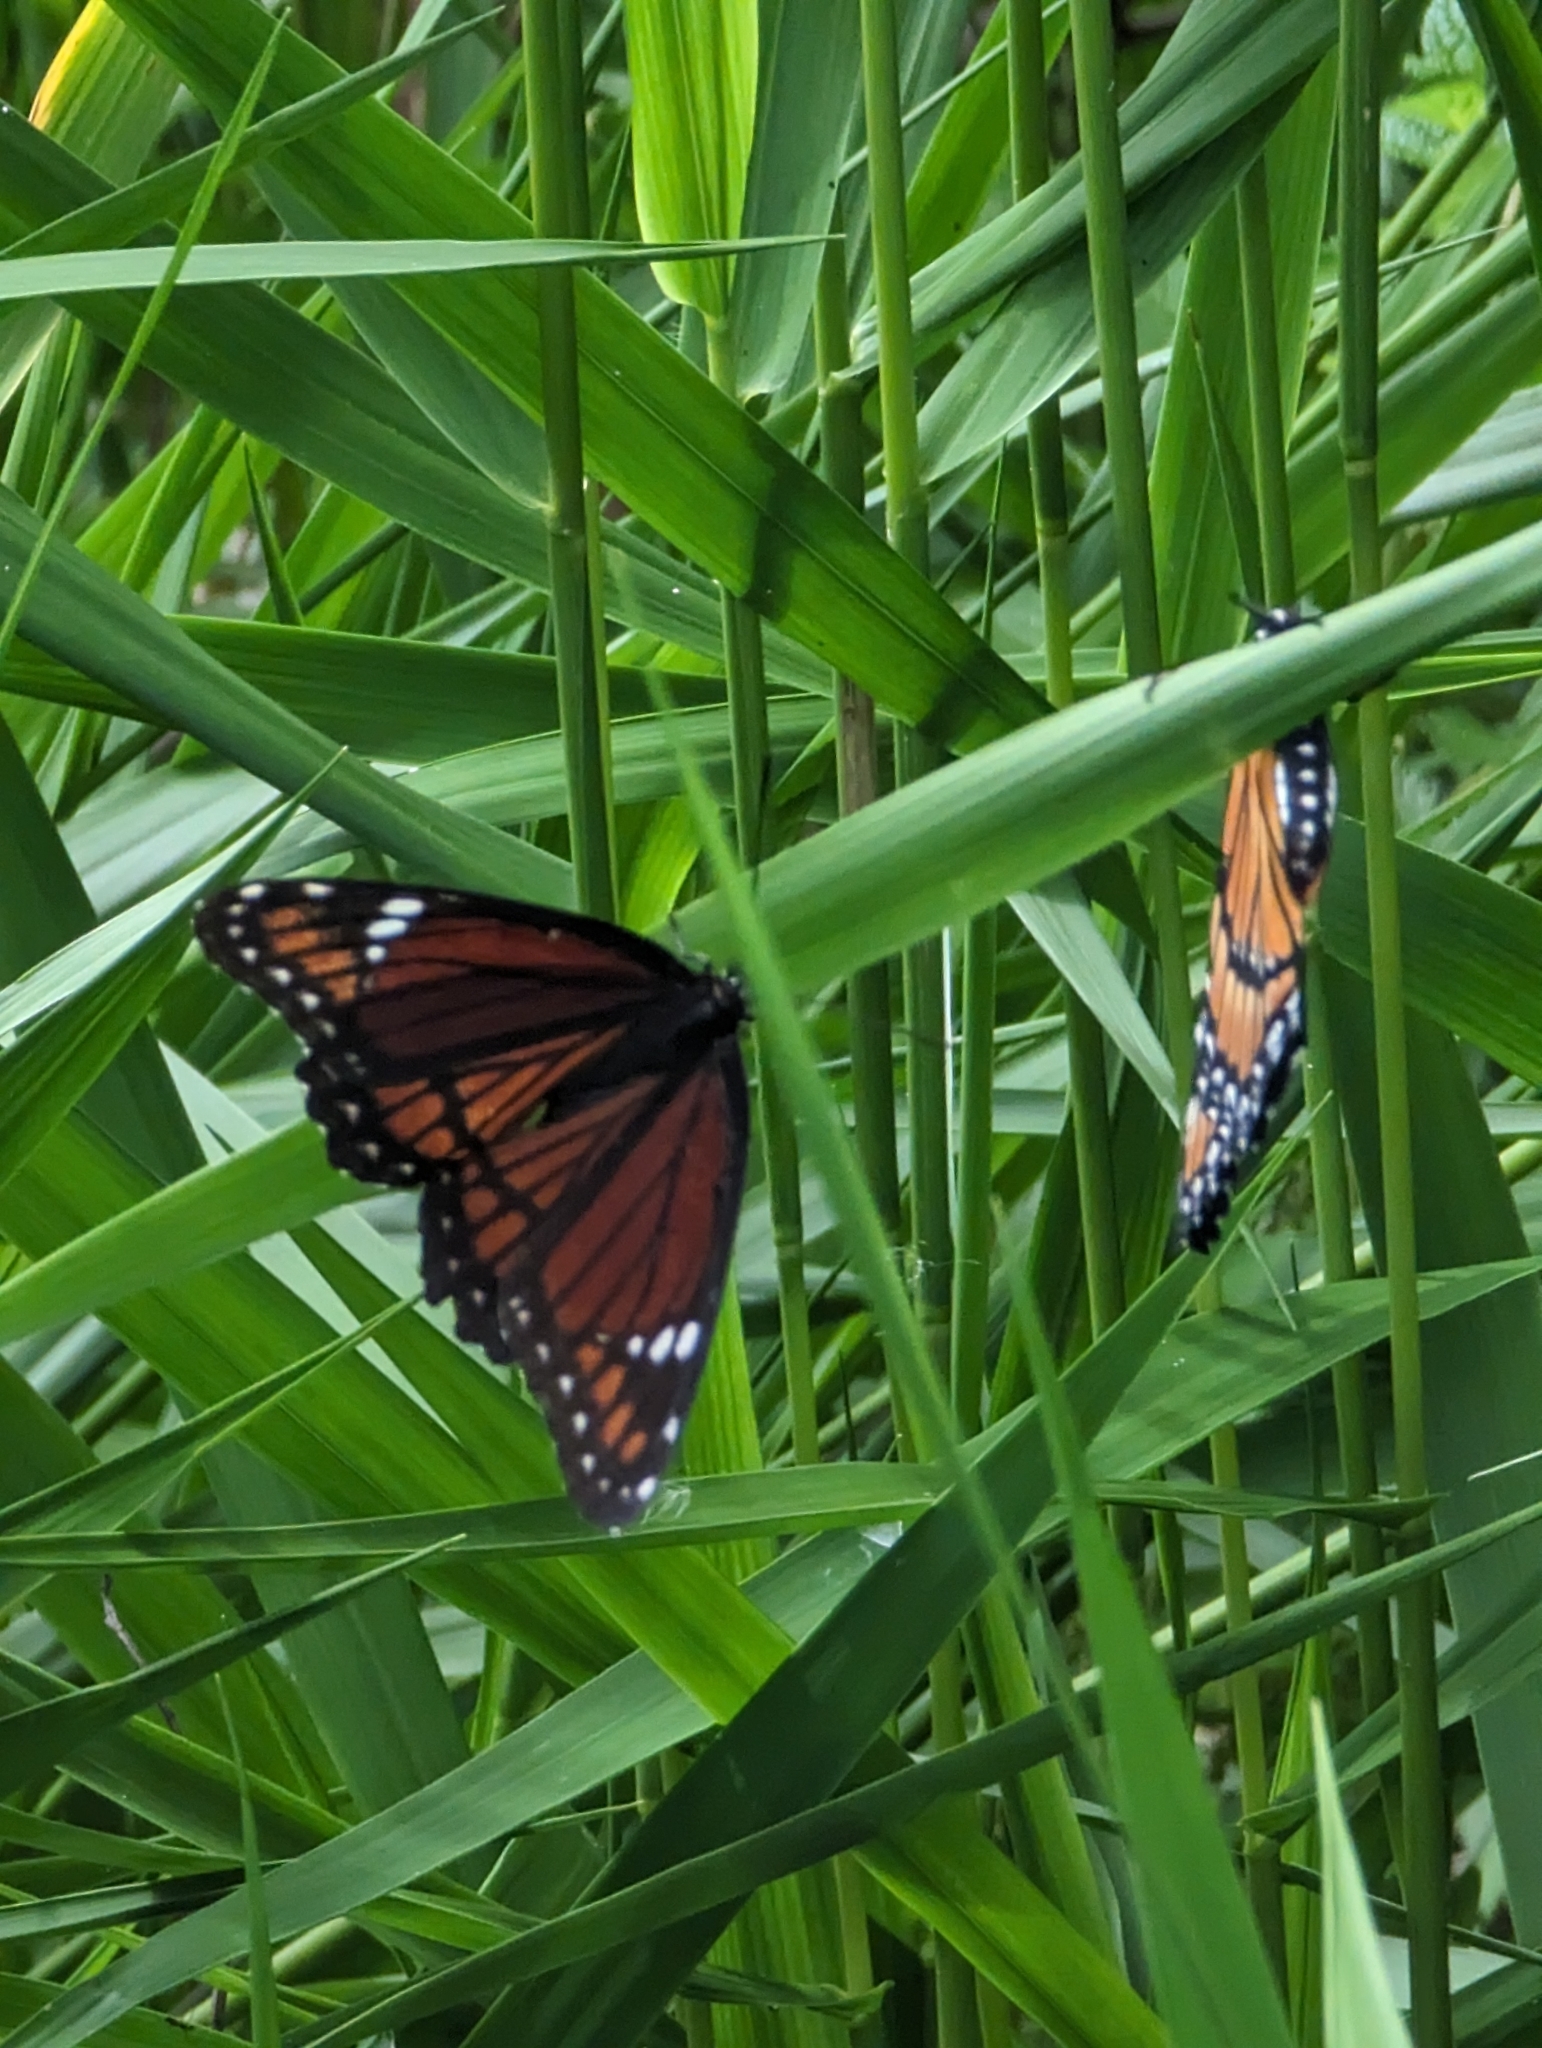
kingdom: Animalia
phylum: Arthropoda
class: Insecta
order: Lepidoptera
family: Nymphalidae
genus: Limenitis
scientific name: Limenitis archippus
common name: Viceroy
